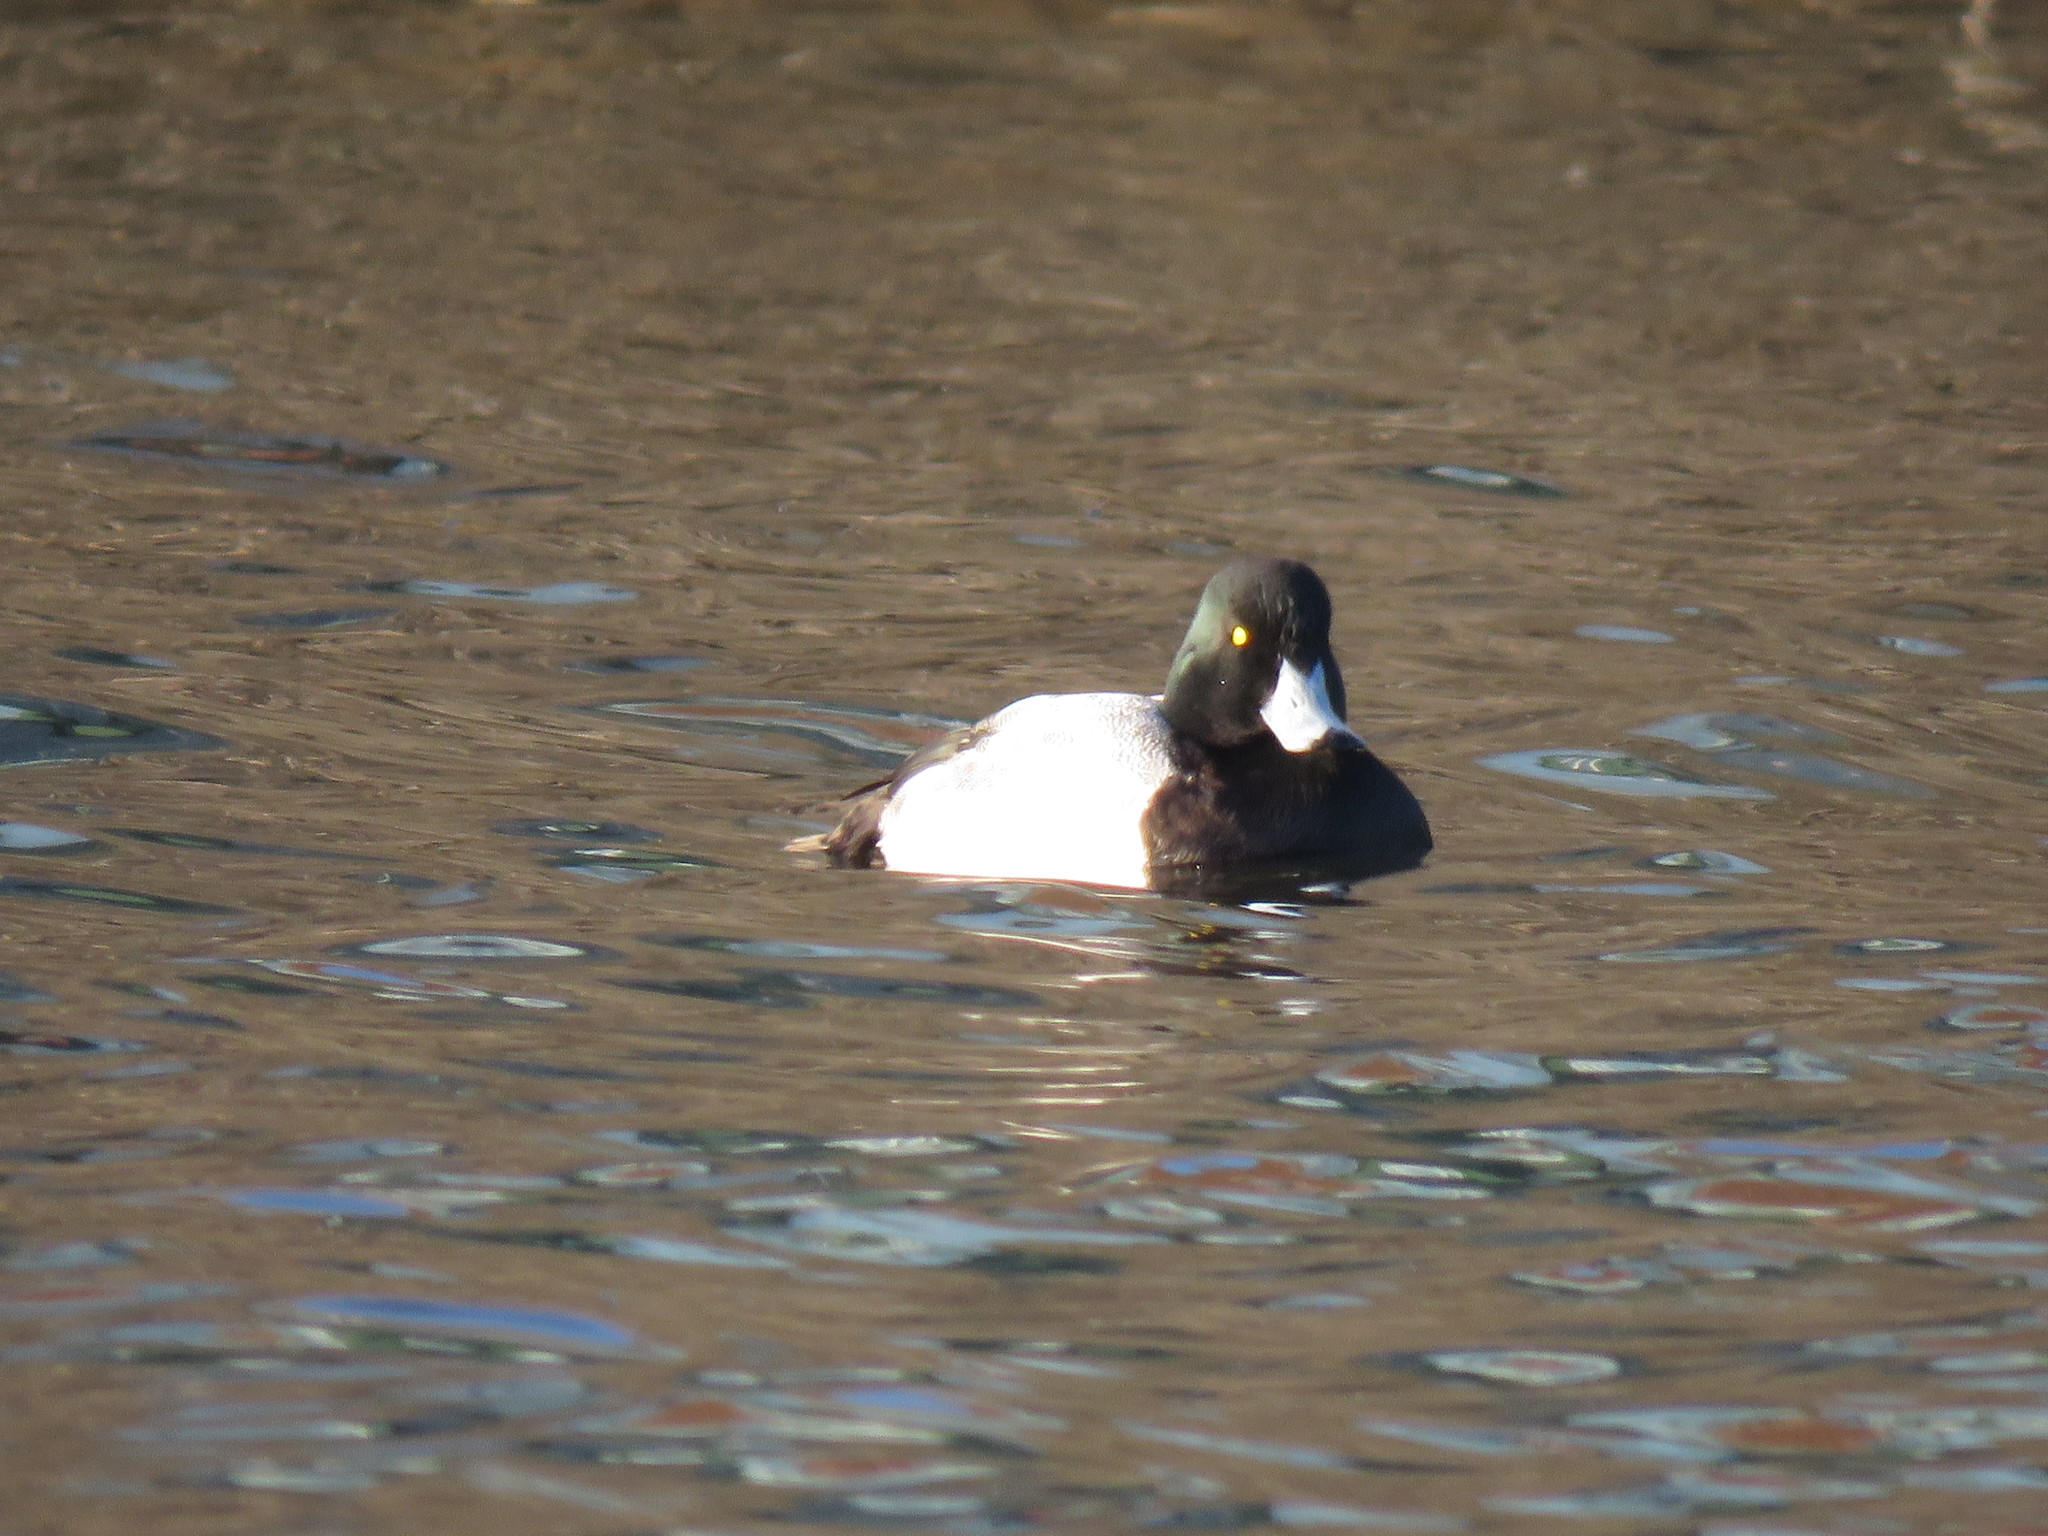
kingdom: Animalia
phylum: Chordata
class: Aves
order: Anseriformes
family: Anatidae
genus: Aythya
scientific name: Aythya marila
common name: Greater scaup
